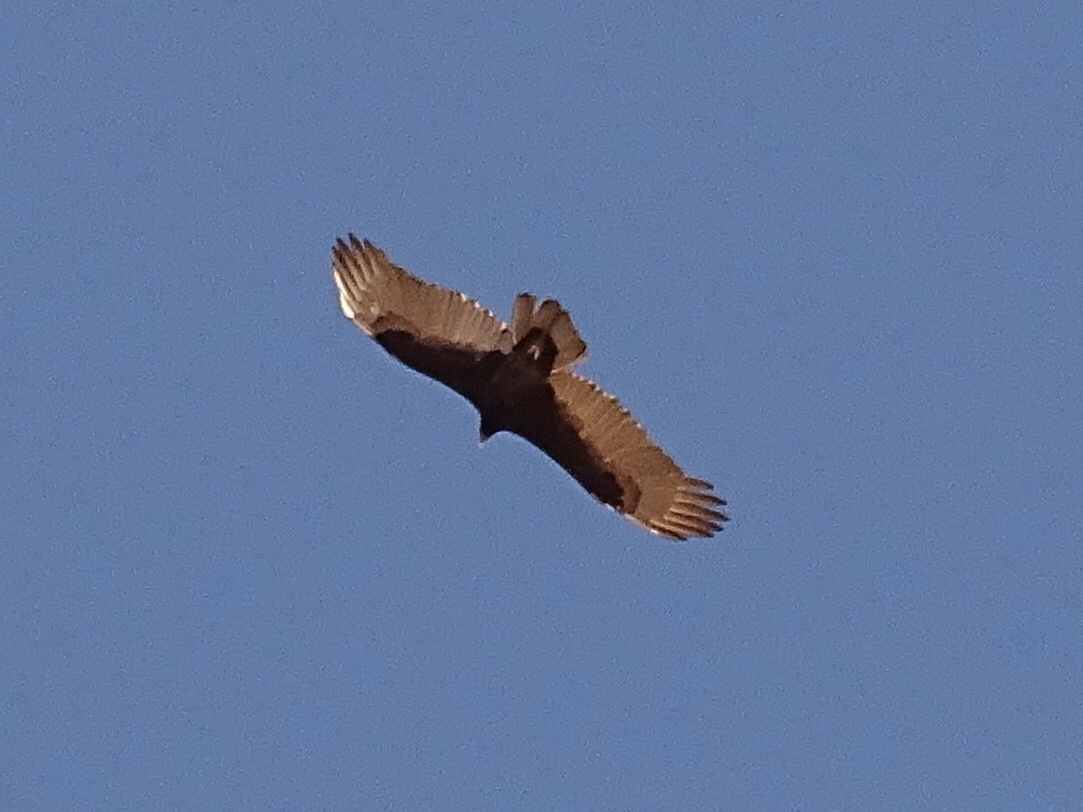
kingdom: Animalia
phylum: Chordata
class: Aves
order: Accipitriformes
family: Cathartidae
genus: Cathartes
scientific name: Cathartes aura
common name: Turkey vulture
